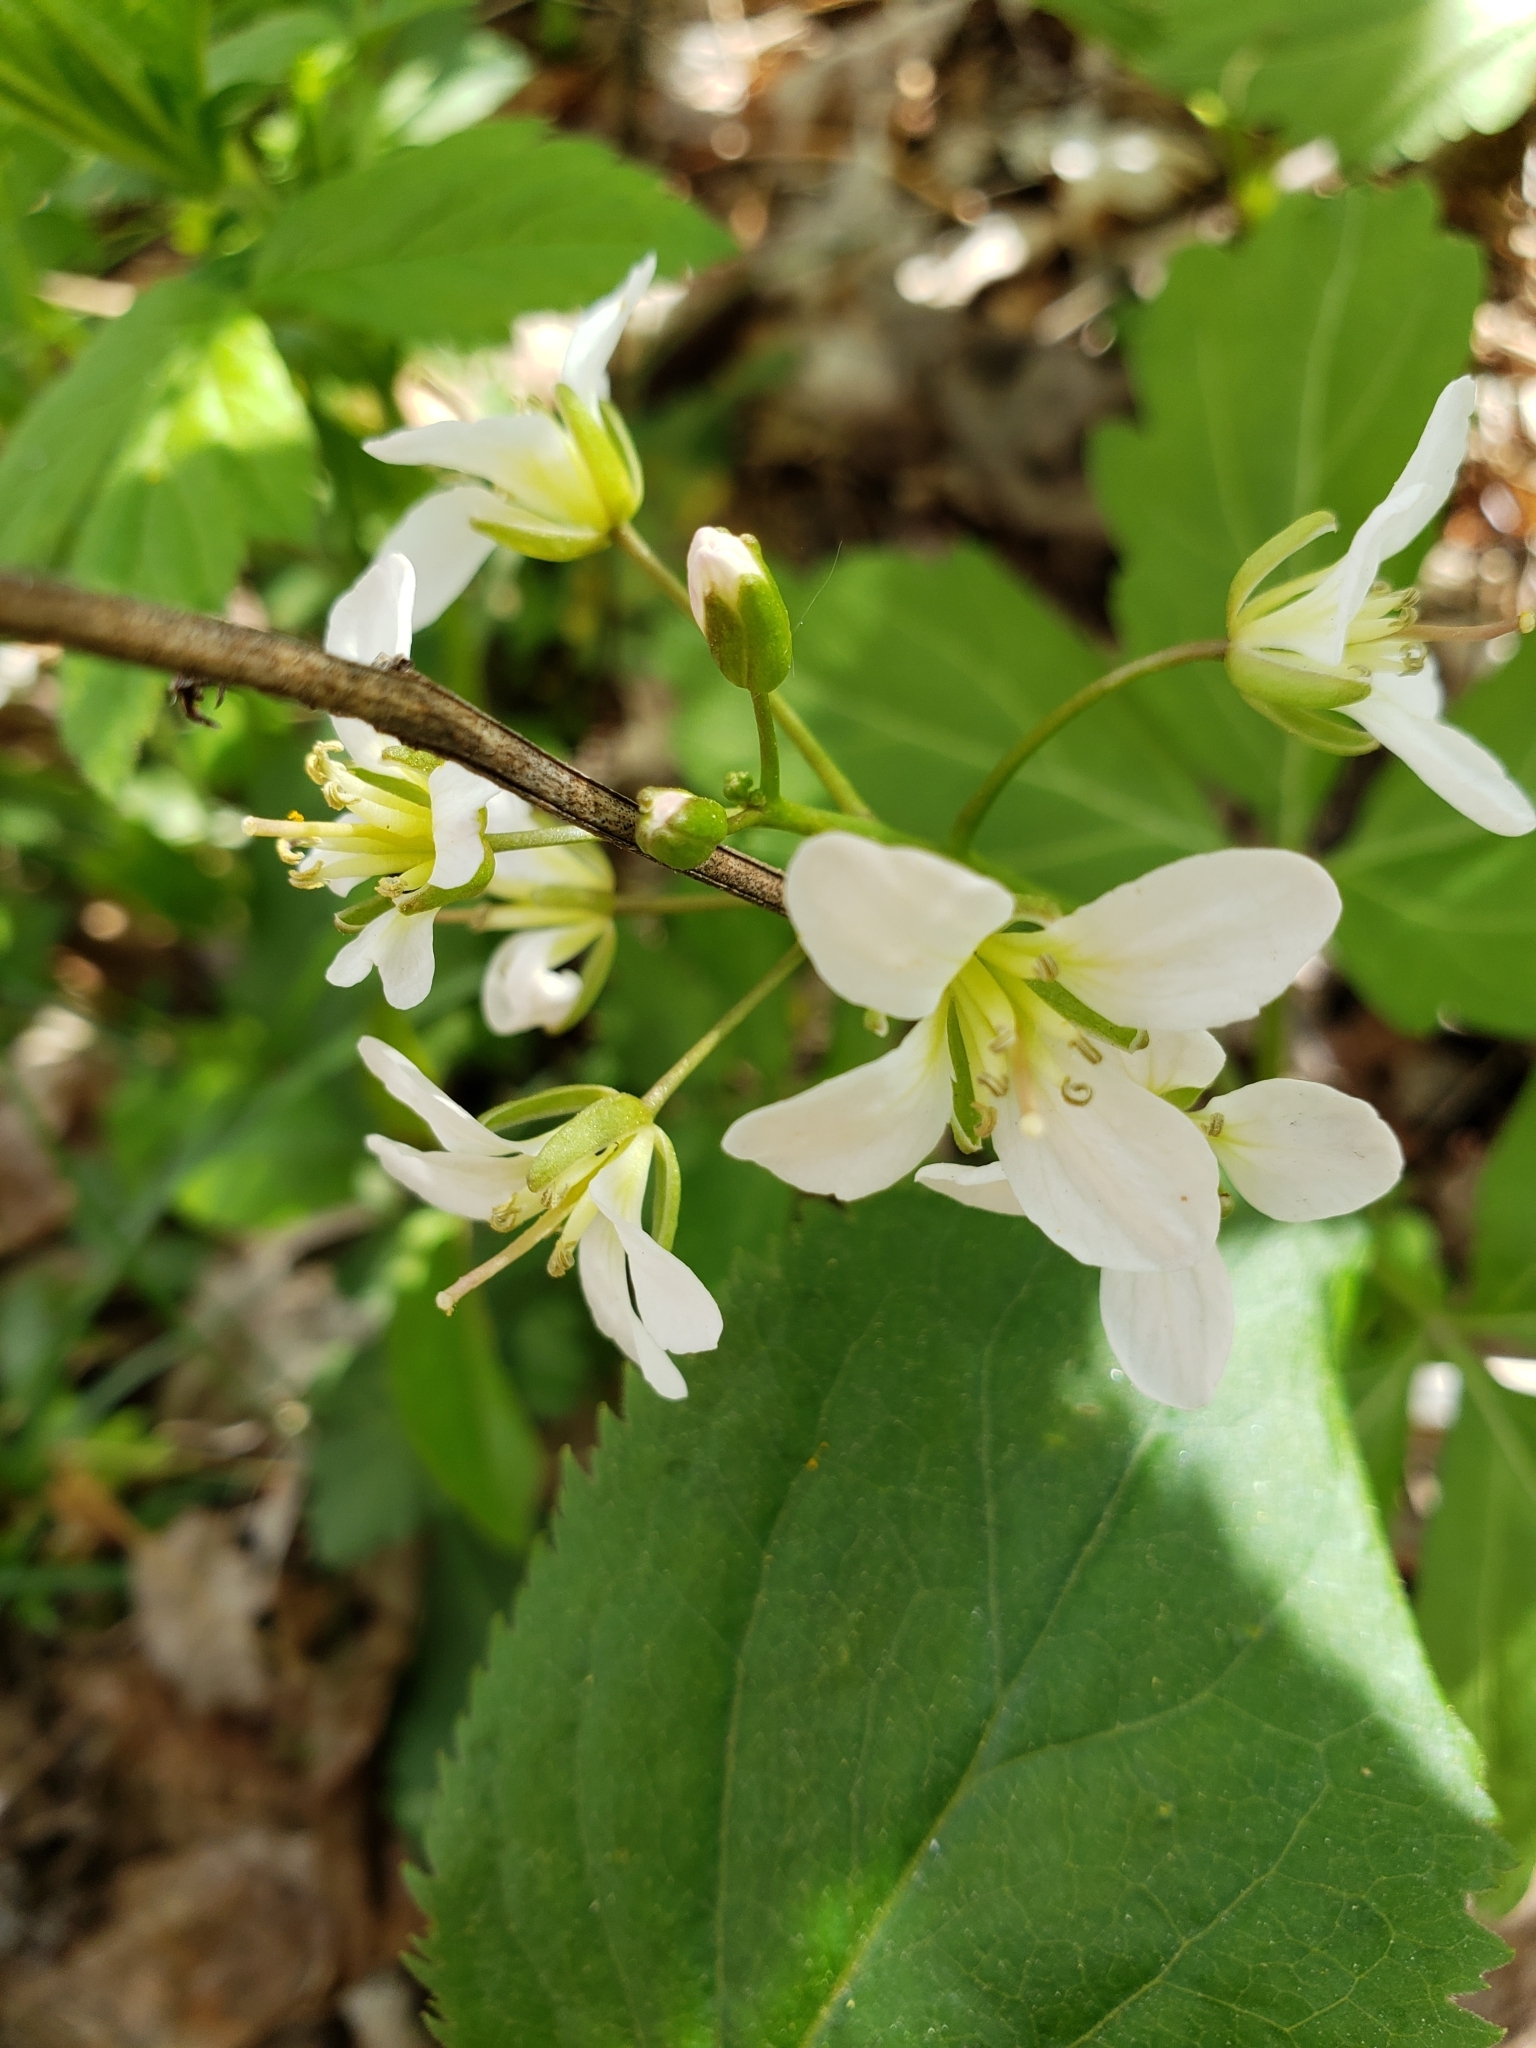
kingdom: Plantae
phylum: Tracheophyta
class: Magnoliopsida
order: Brassicales
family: Brassicaceae
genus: Cardamine
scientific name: Cardamine diphylla
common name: Broad-leaved toothwort
